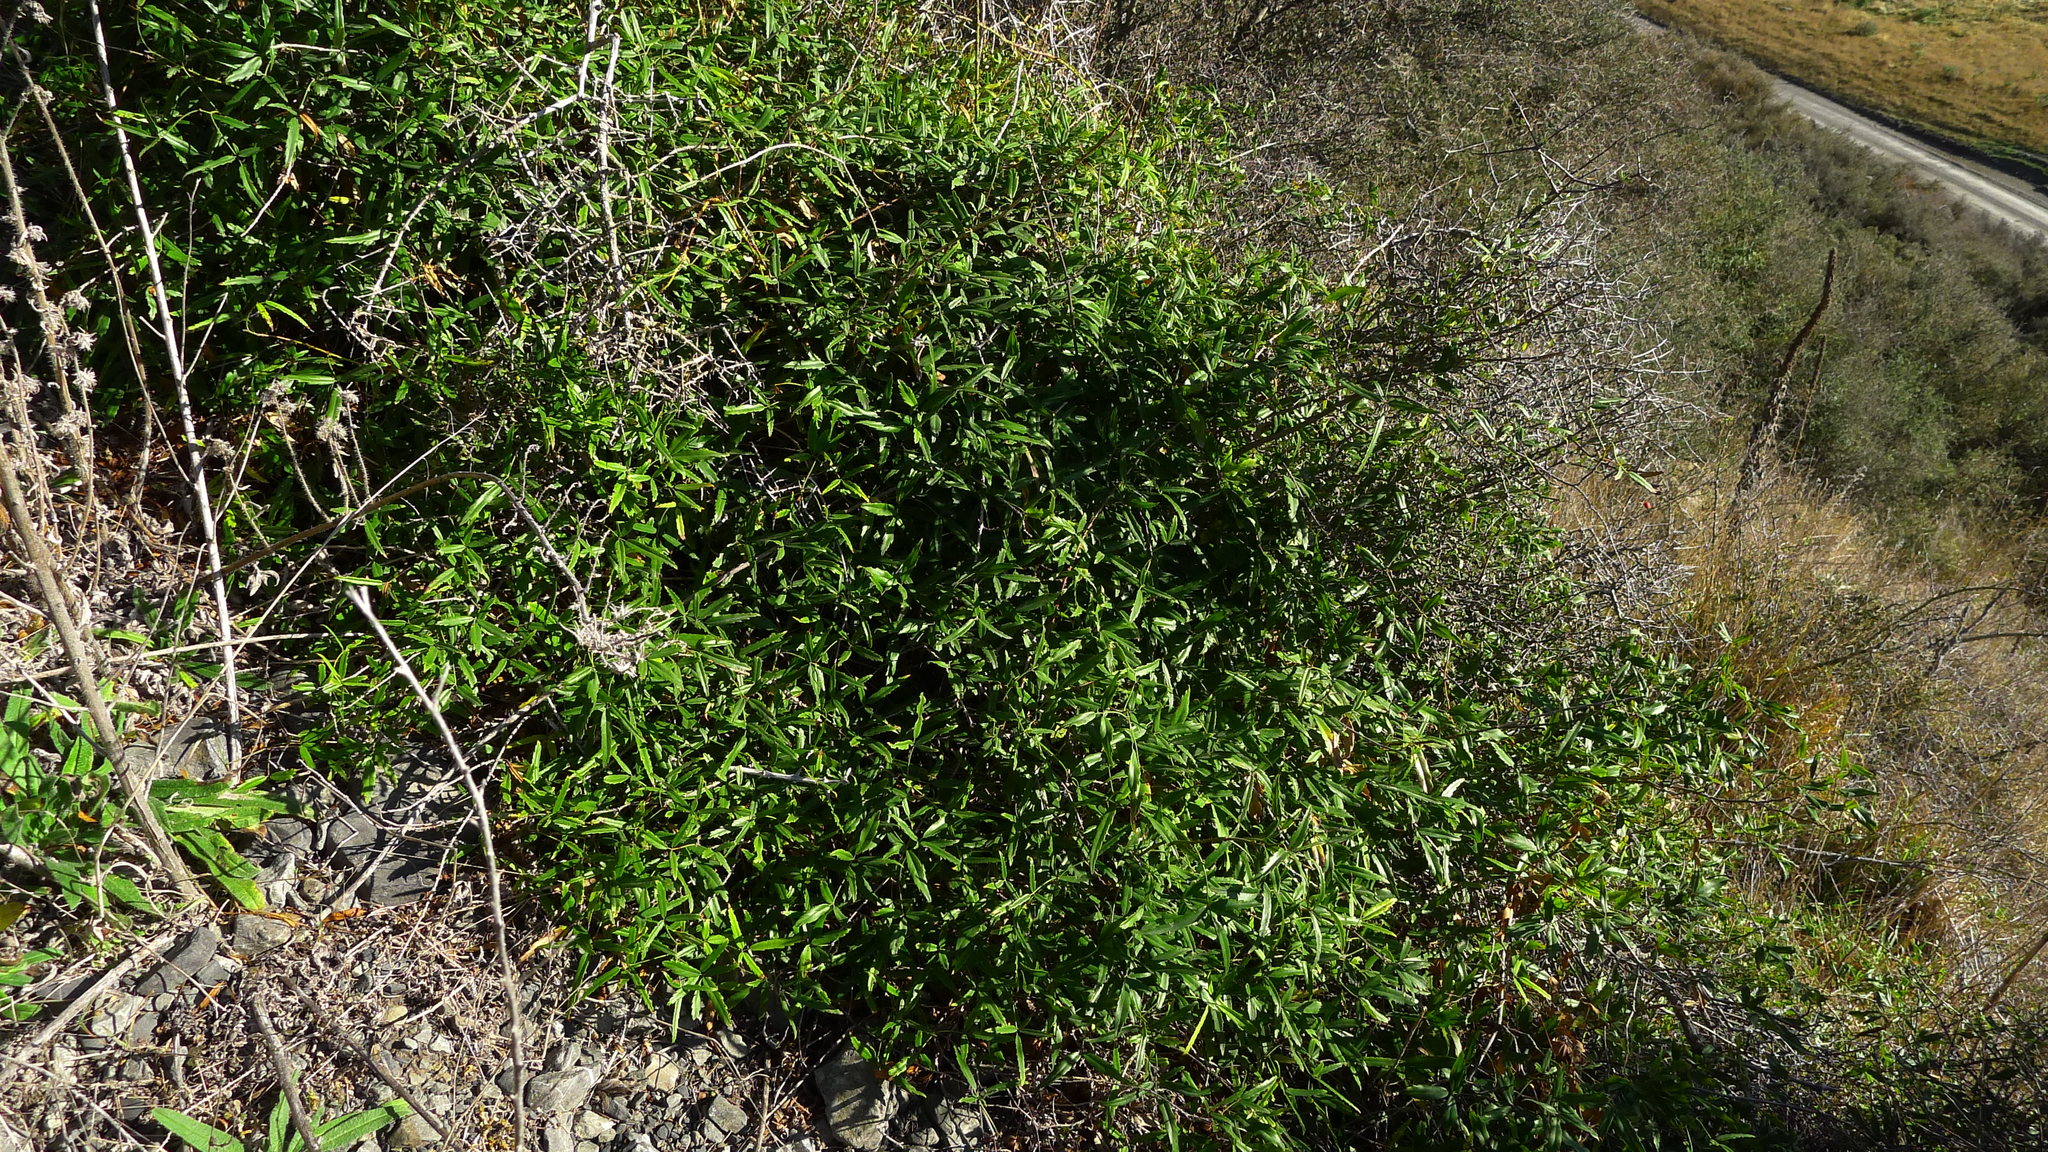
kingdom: Plantae
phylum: Tracheophyta
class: Magnoliopsida
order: Rosales
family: Rosaceae
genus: Rubus
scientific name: Rubus schmidelioides
